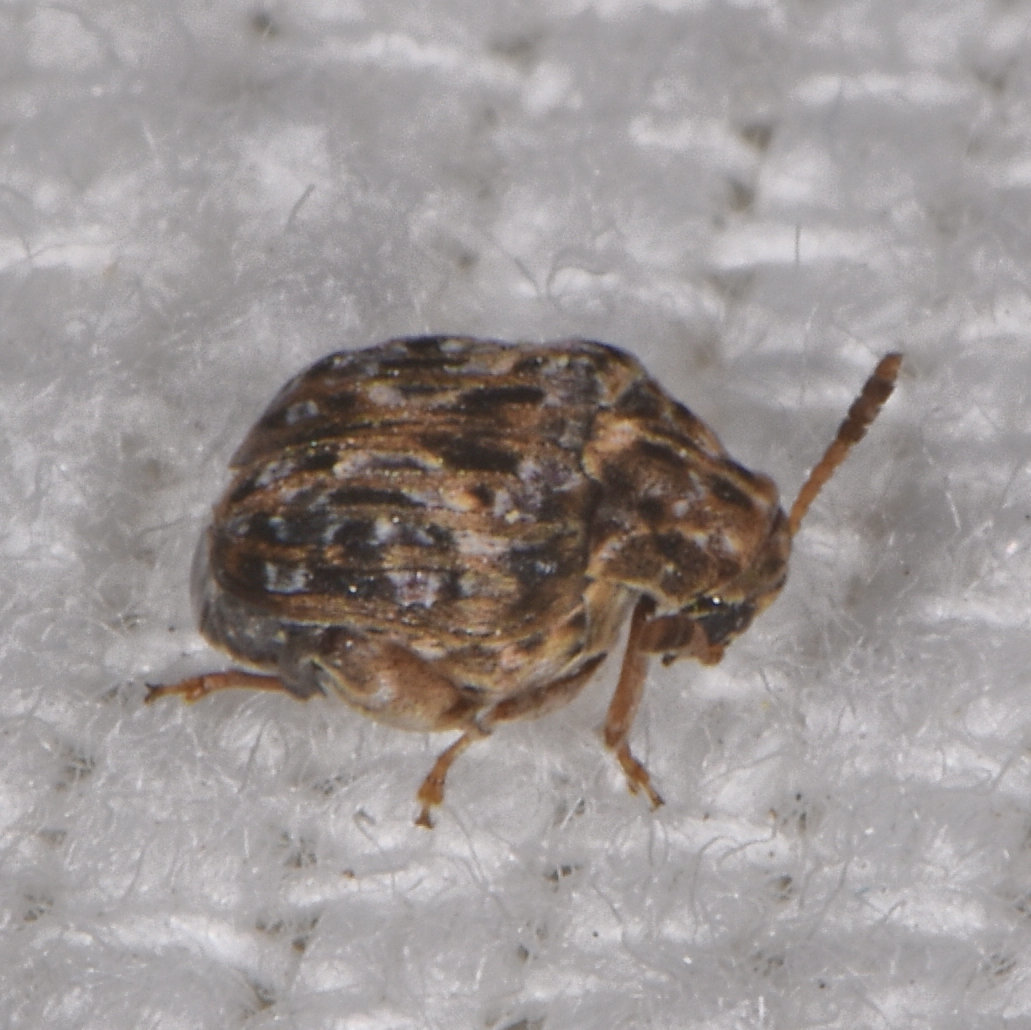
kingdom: Animalia
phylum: Arthropoda
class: Insecta
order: Coleoptera
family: Chrysomelidae
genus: Gibbobruchus
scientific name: Gibbobruchus mimus
